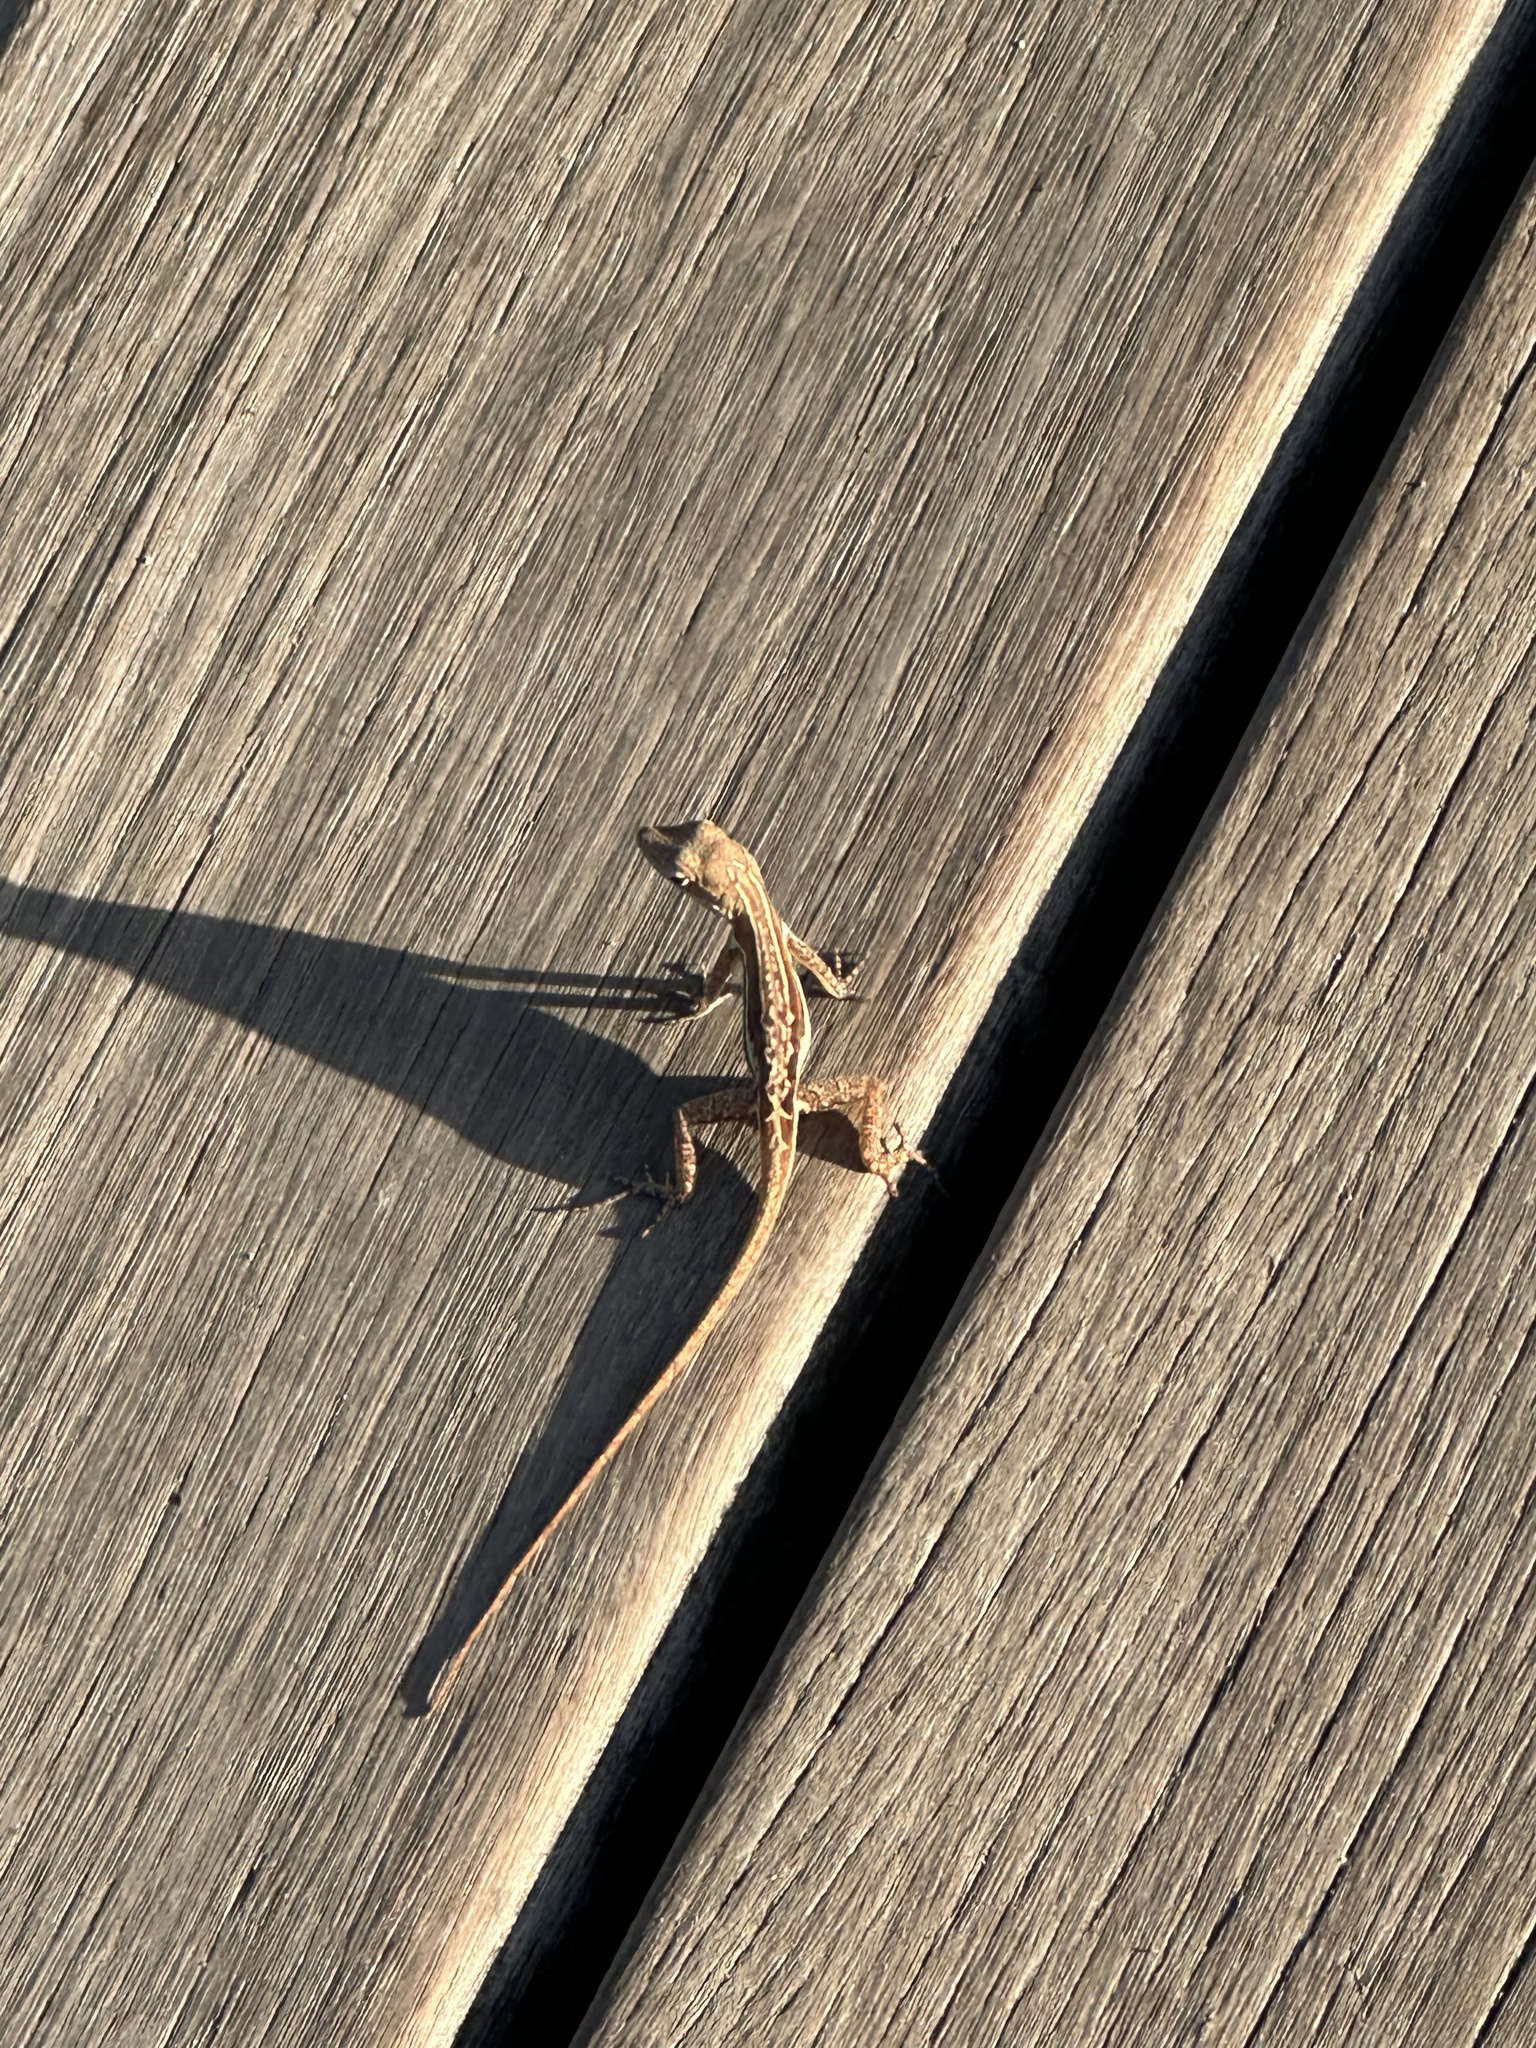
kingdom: Animalia
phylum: Chordata
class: Squamata
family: Dactyloidae
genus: Anolis
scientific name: Anolis gingivinus
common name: Anguilla anole
